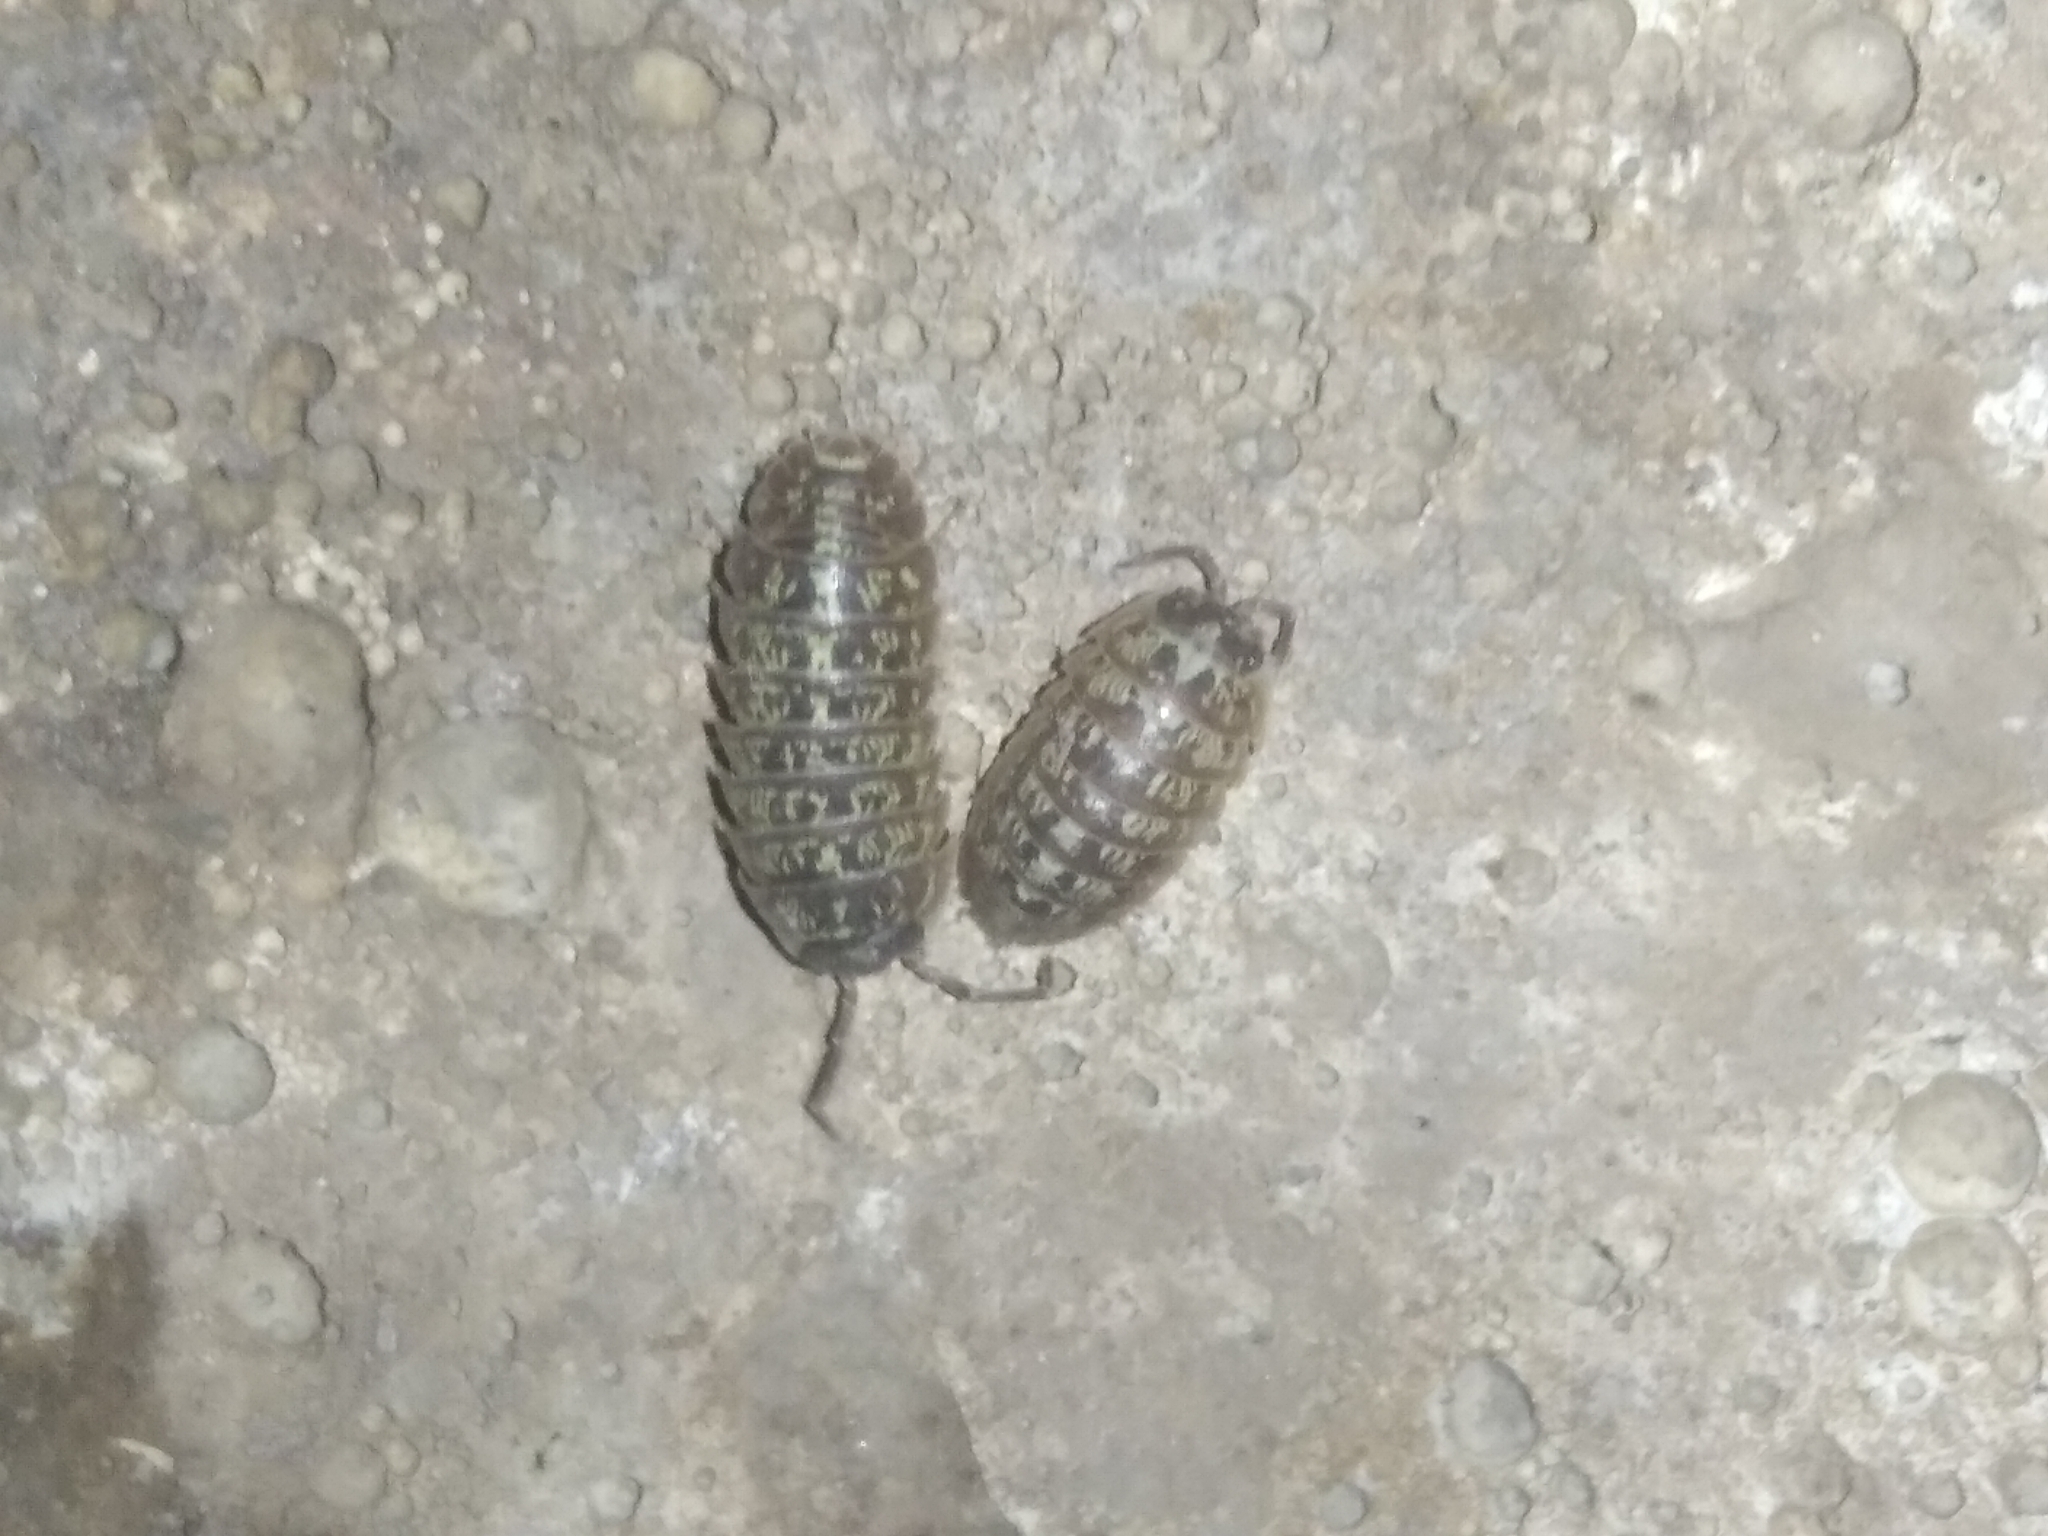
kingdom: Animalia
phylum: Arthropoda
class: Malacostraca
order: Isopoda
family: Armadillidiidae
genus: Armadillidium
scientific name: Armadillidium versicolor
